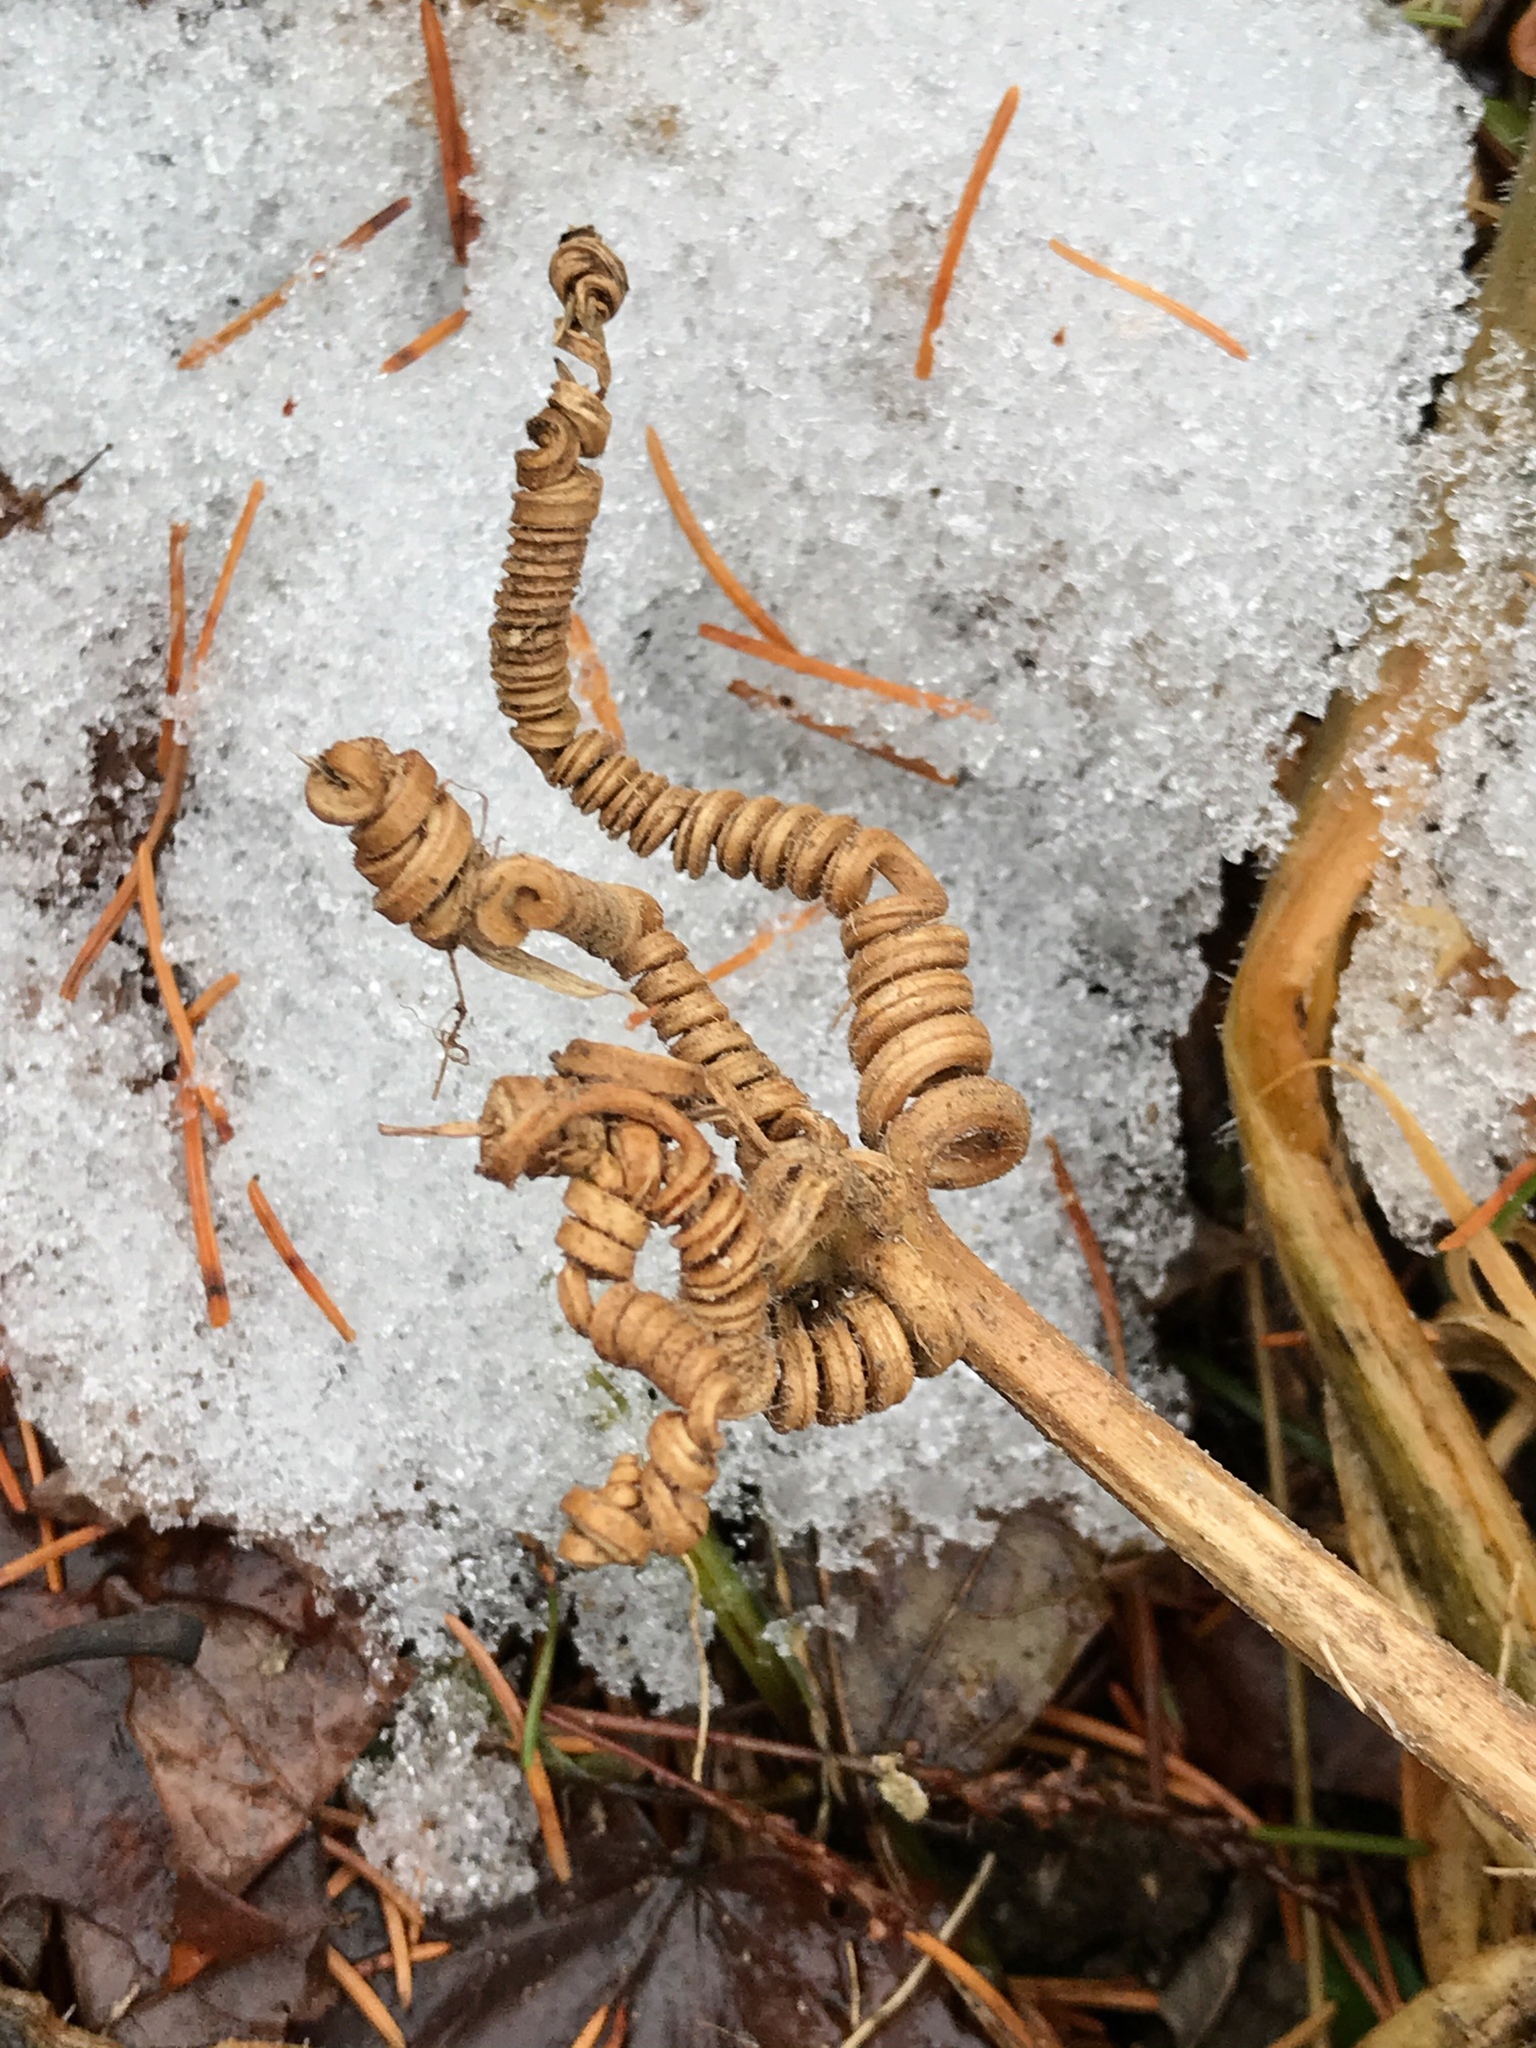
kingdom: Plantae
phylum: Tracheophyta
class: Magnoliopsida
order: Cucurbitales
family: Cucurbitaceae
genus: Cucurbita
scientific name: Cucurbita pepo
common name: Marrow
